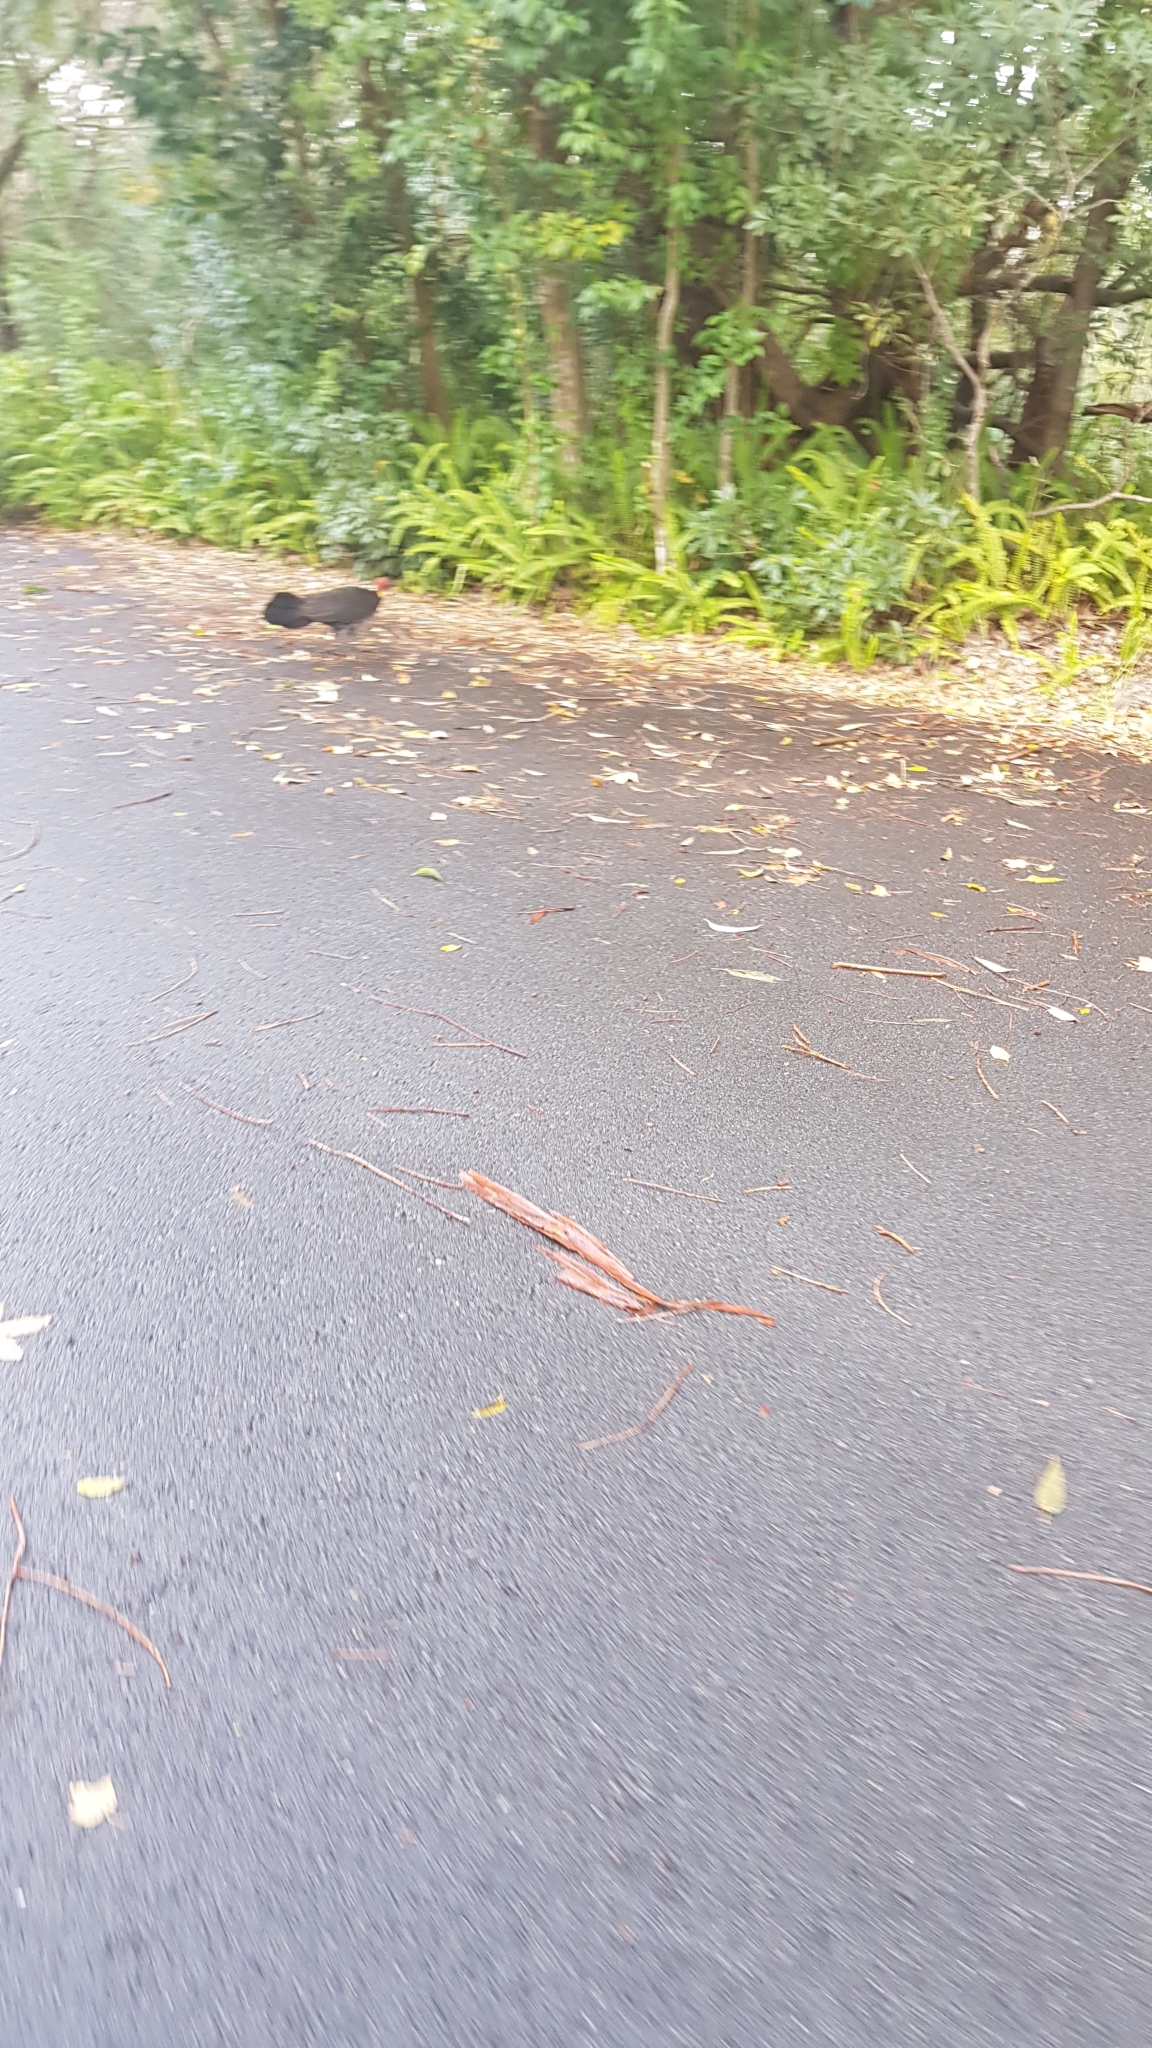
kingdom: Animalia
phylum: Chordata
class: Aves
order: Galliformes
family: Megapodiidae
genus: Alectura
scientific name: Alectura lathami
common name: Australian brushturkey
